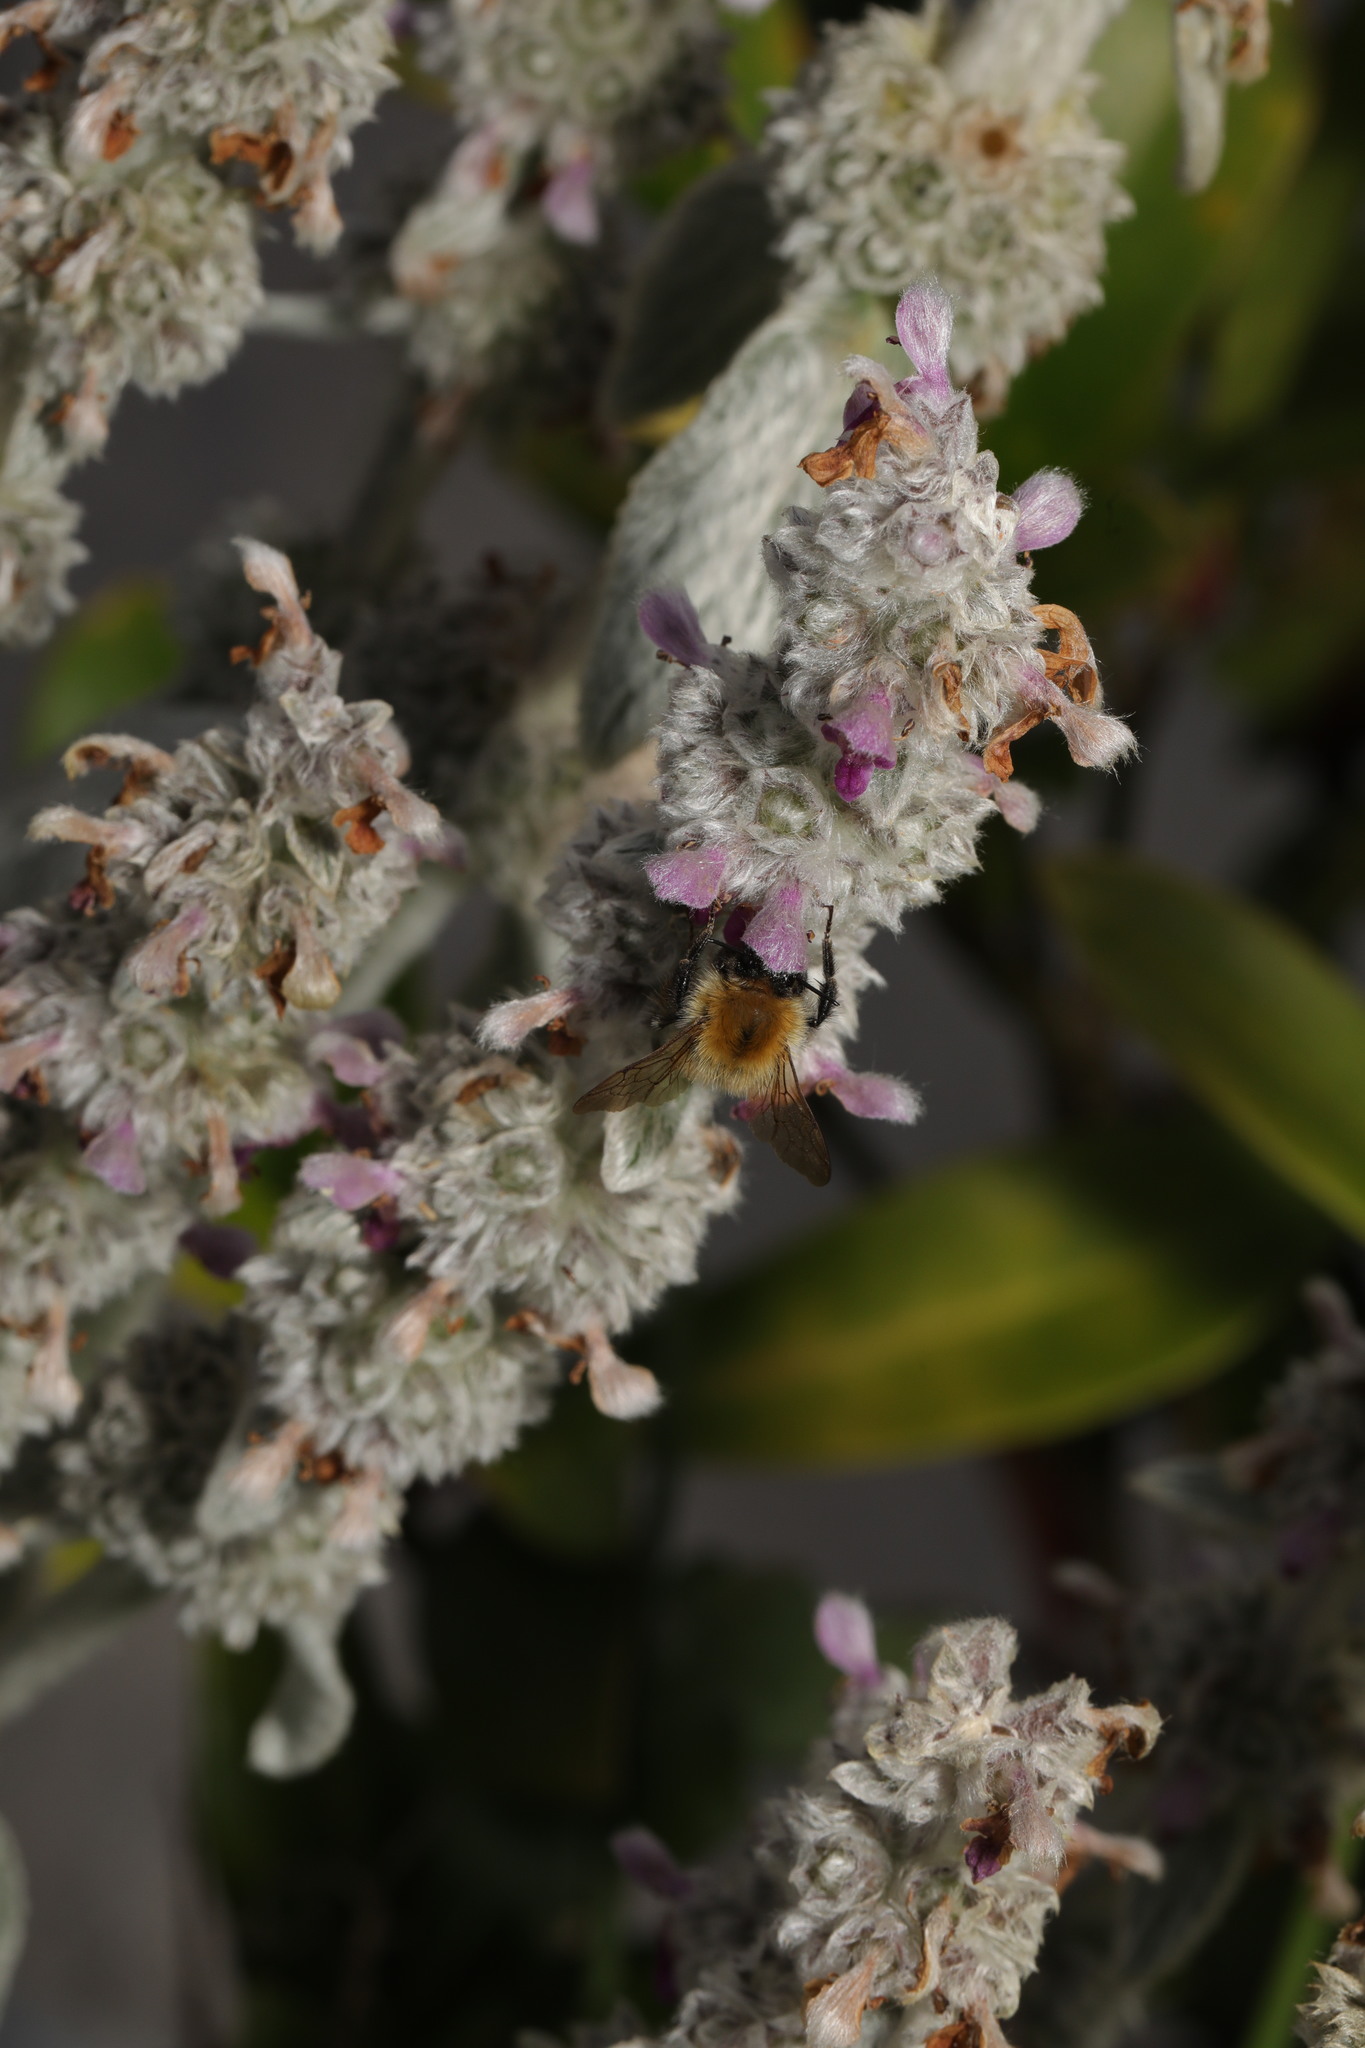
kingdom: Plantae
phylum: Tracheophyta
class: Magnoliopsida
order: Lamiales
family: Lamiaceae
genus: Stachys
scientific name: Stachys byzantina
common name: Lamb's-ear
